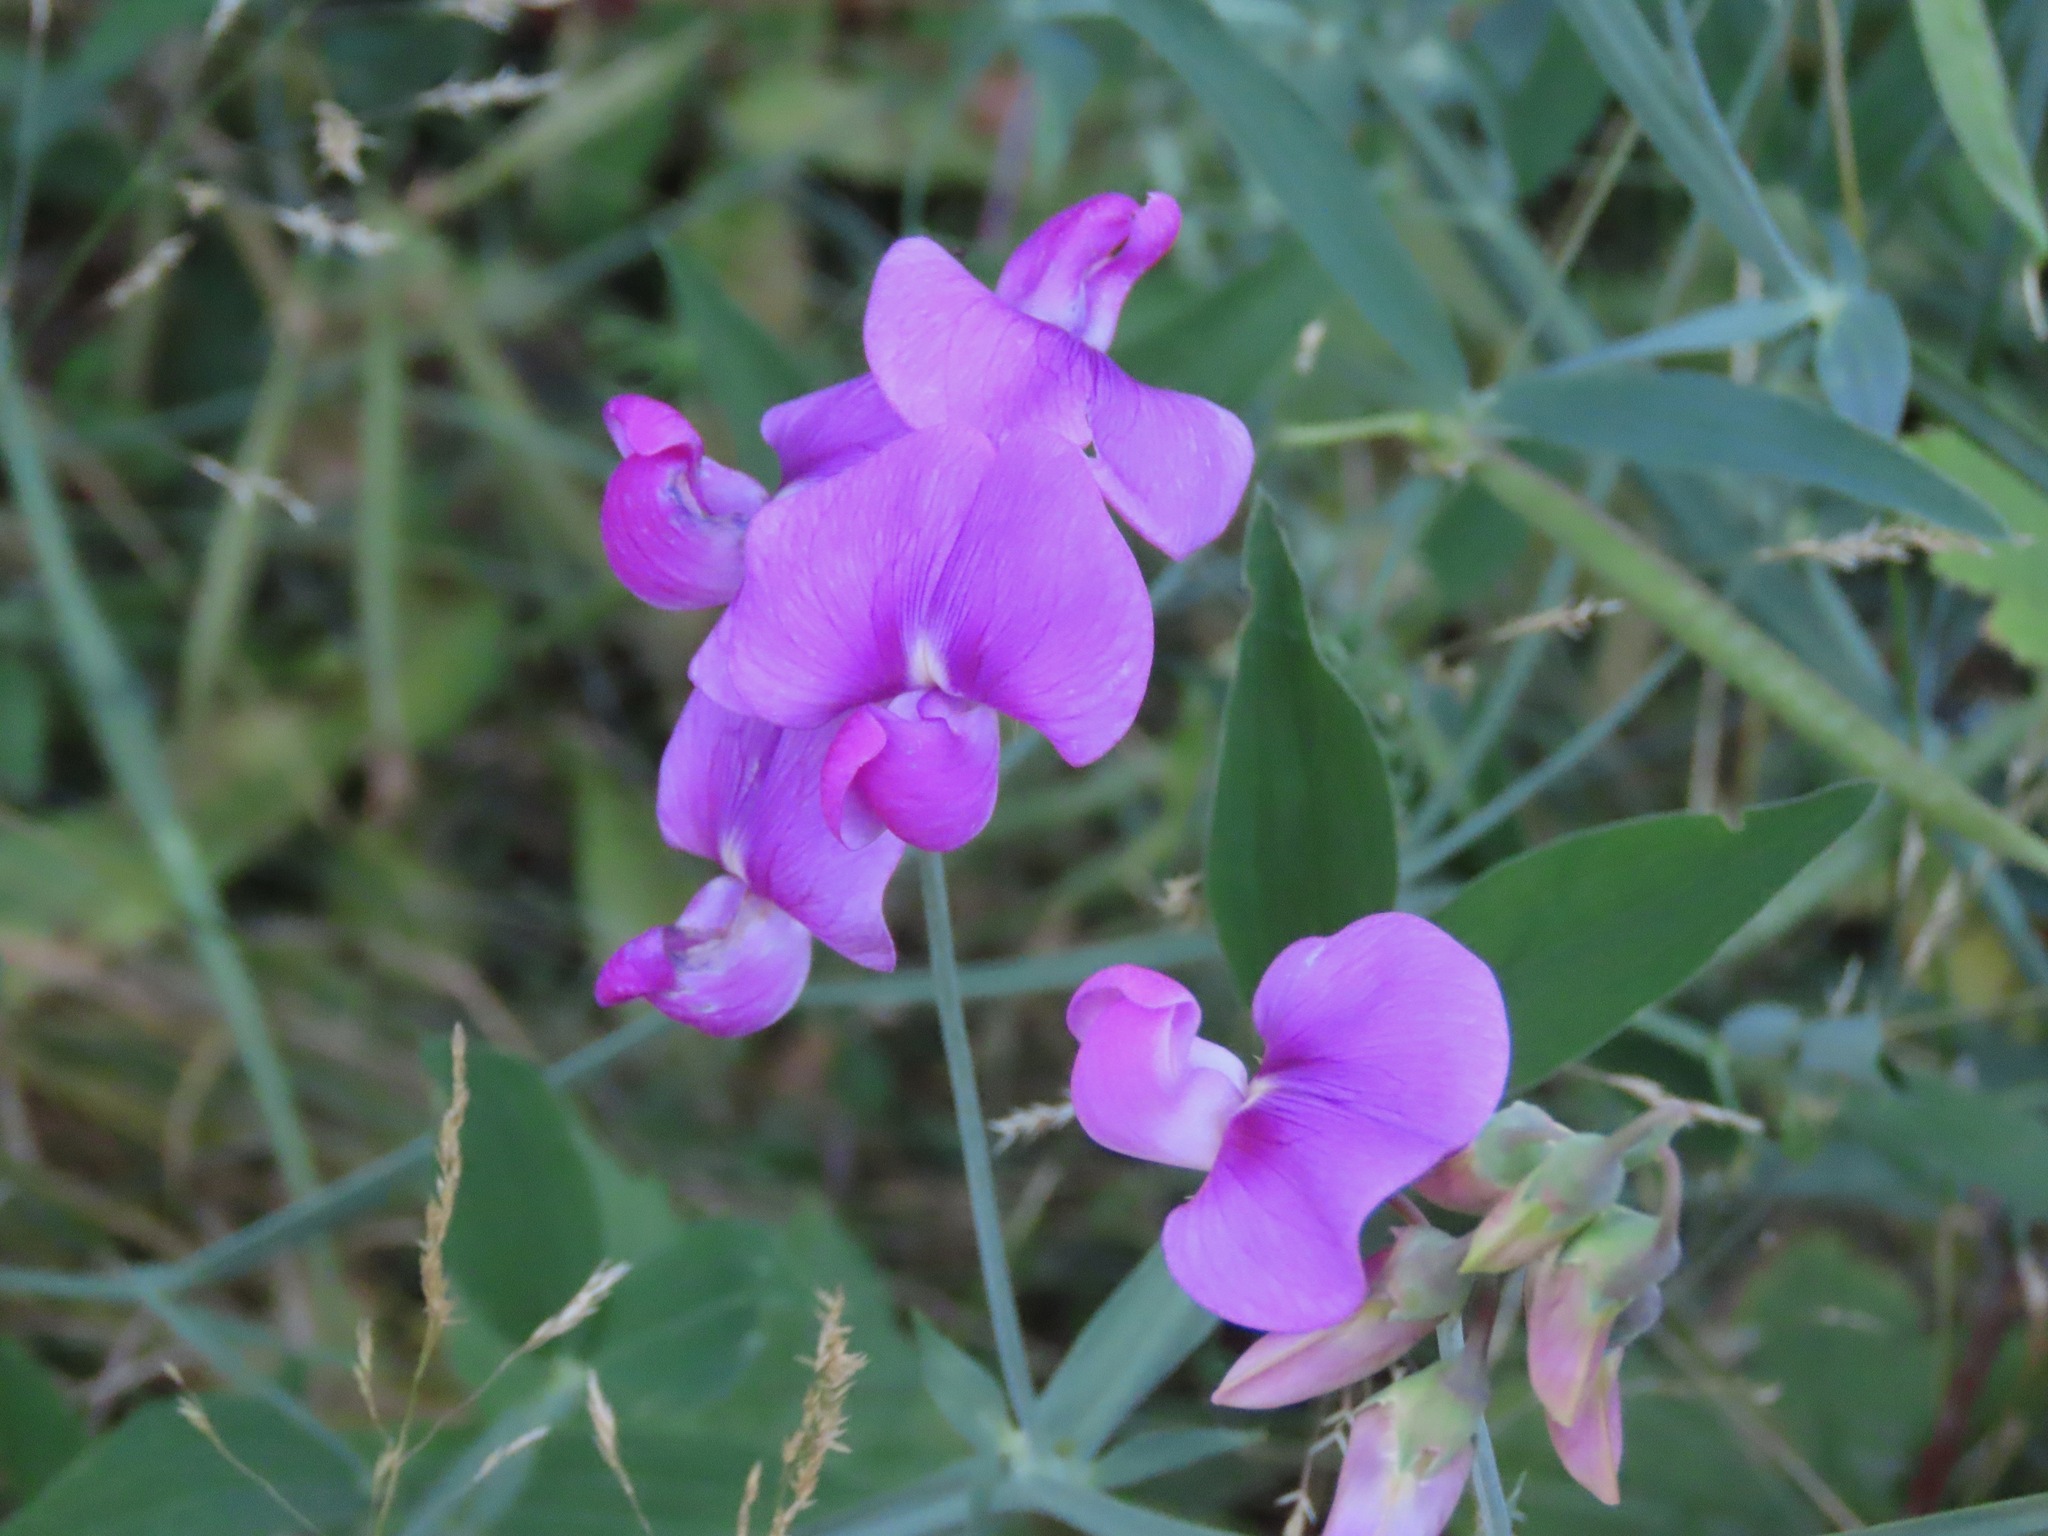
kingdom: Plantae
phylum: Tracheophyta
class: Magnoliopsida
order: Fabales
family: Fabaceae
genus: Lathyrus
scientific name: Lathyrus latifolius
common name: Perennial pea
